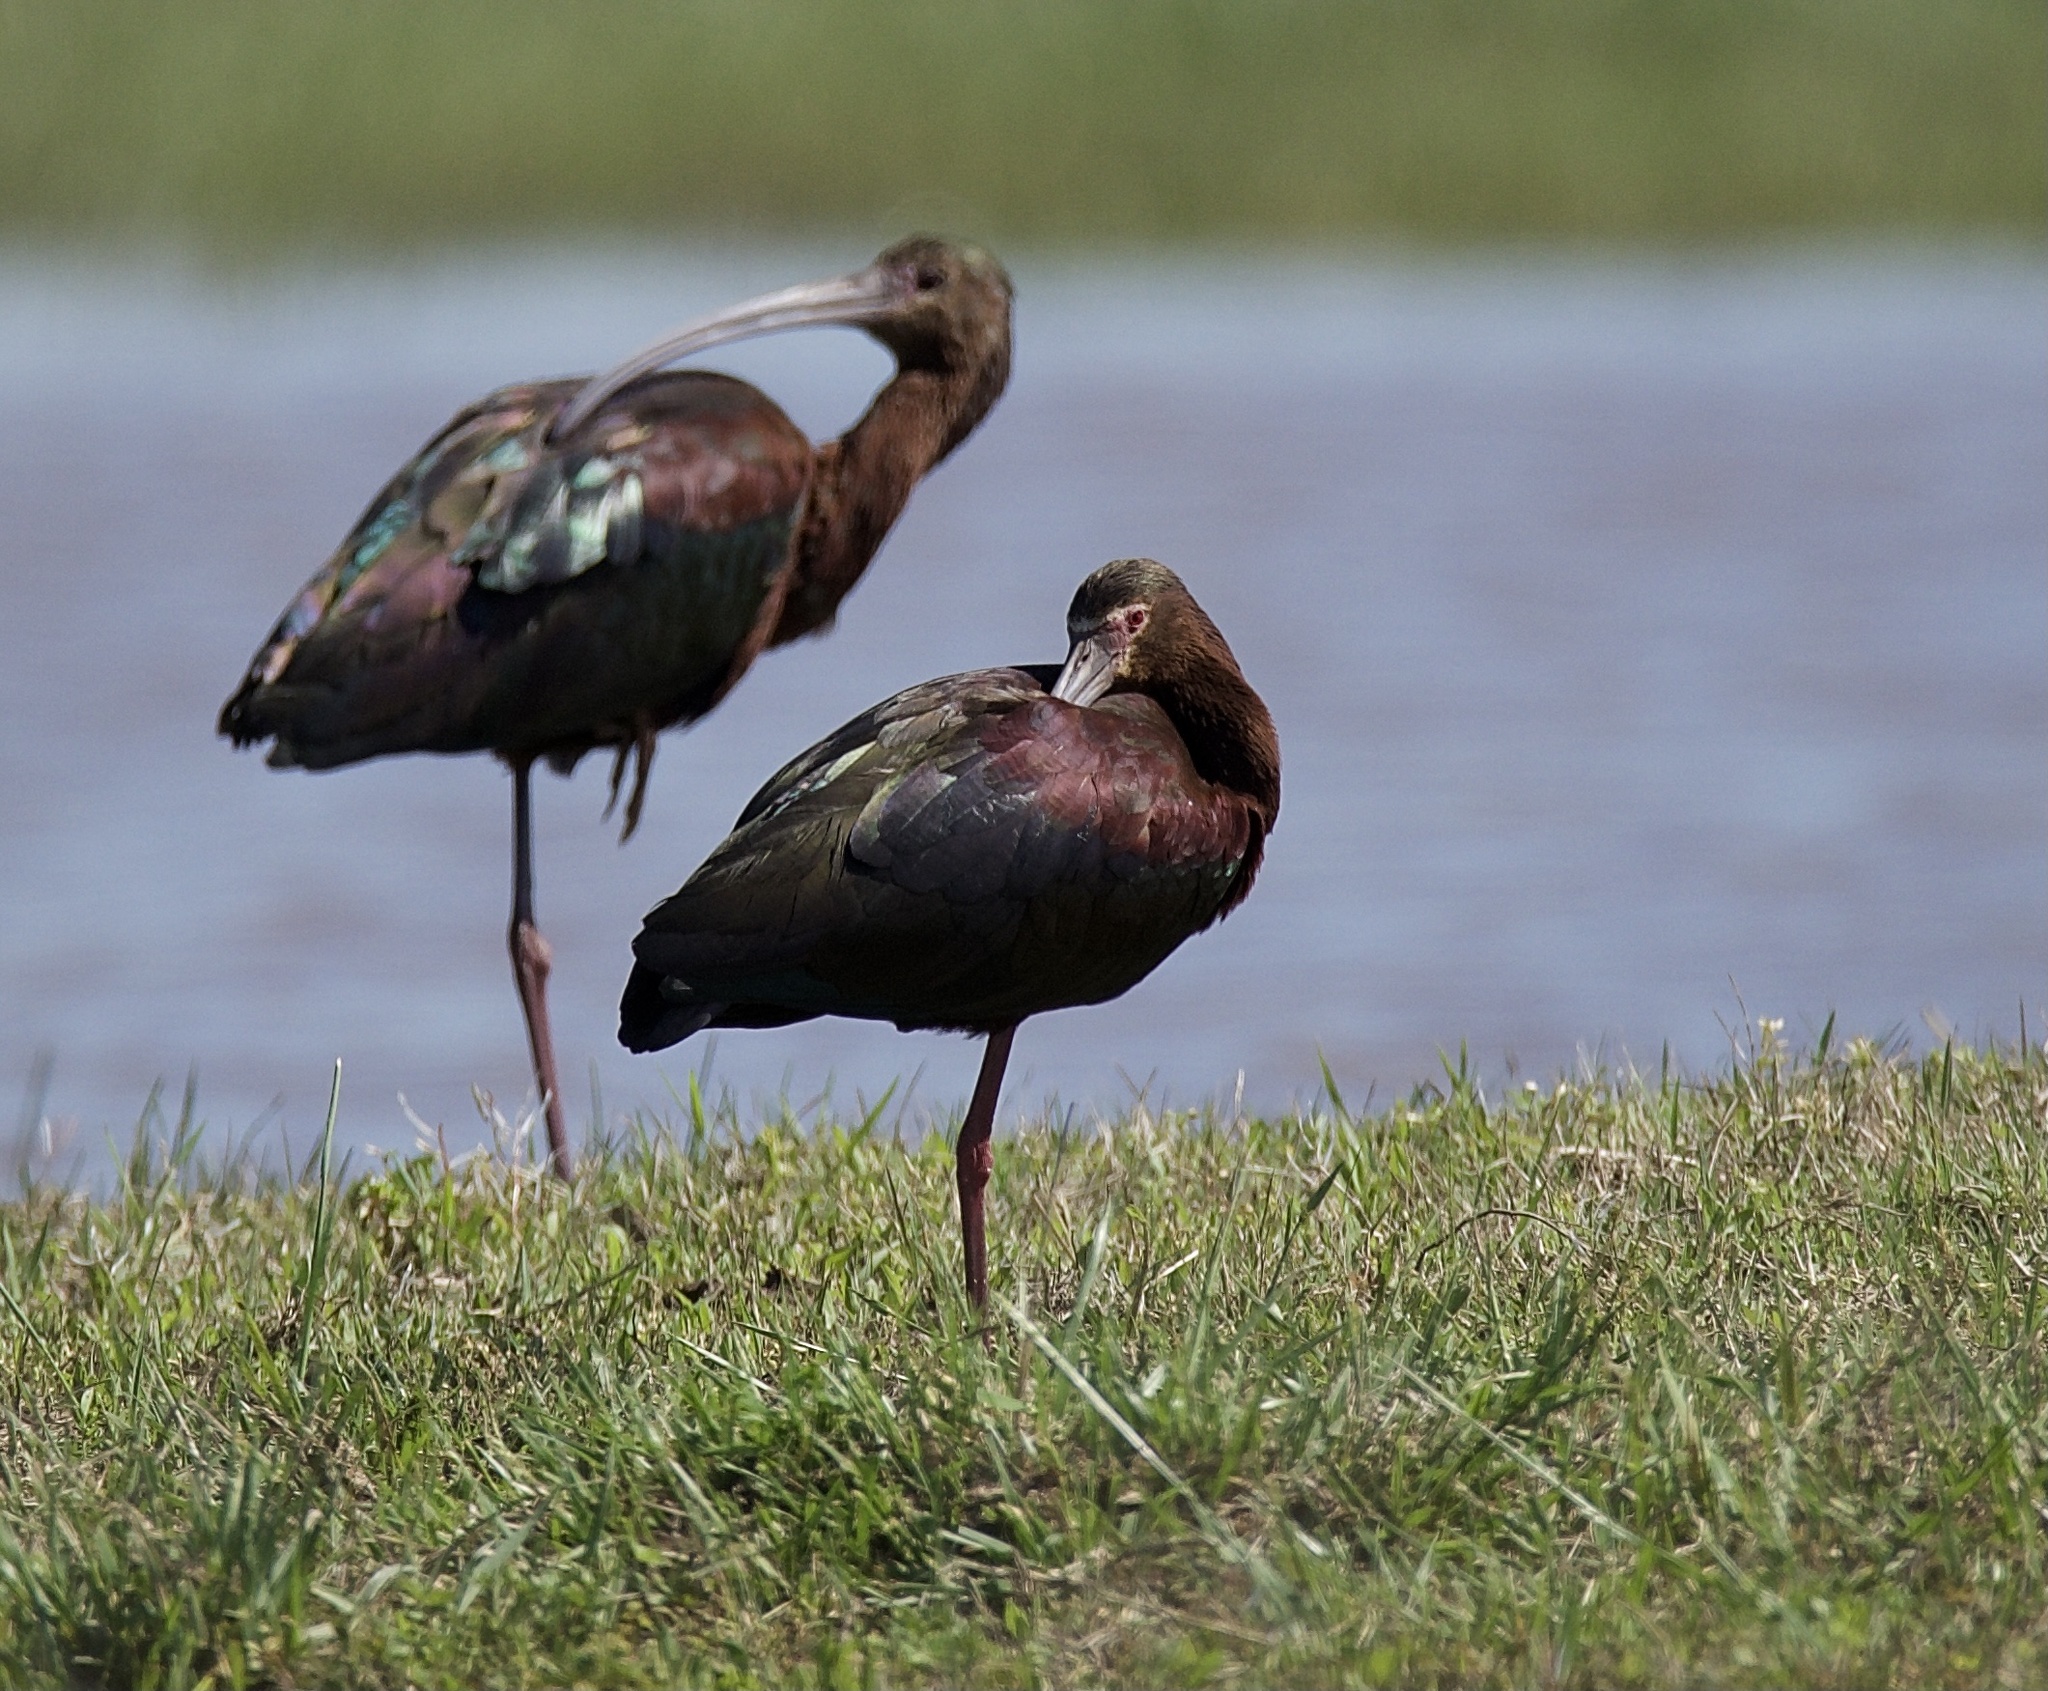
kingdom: Animalia
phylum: Chordata
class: Aves
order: Pelecaniformes
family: Threskiornithidae
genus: Plegadis
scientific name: Plegadis chihi
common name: White-faced ibis
